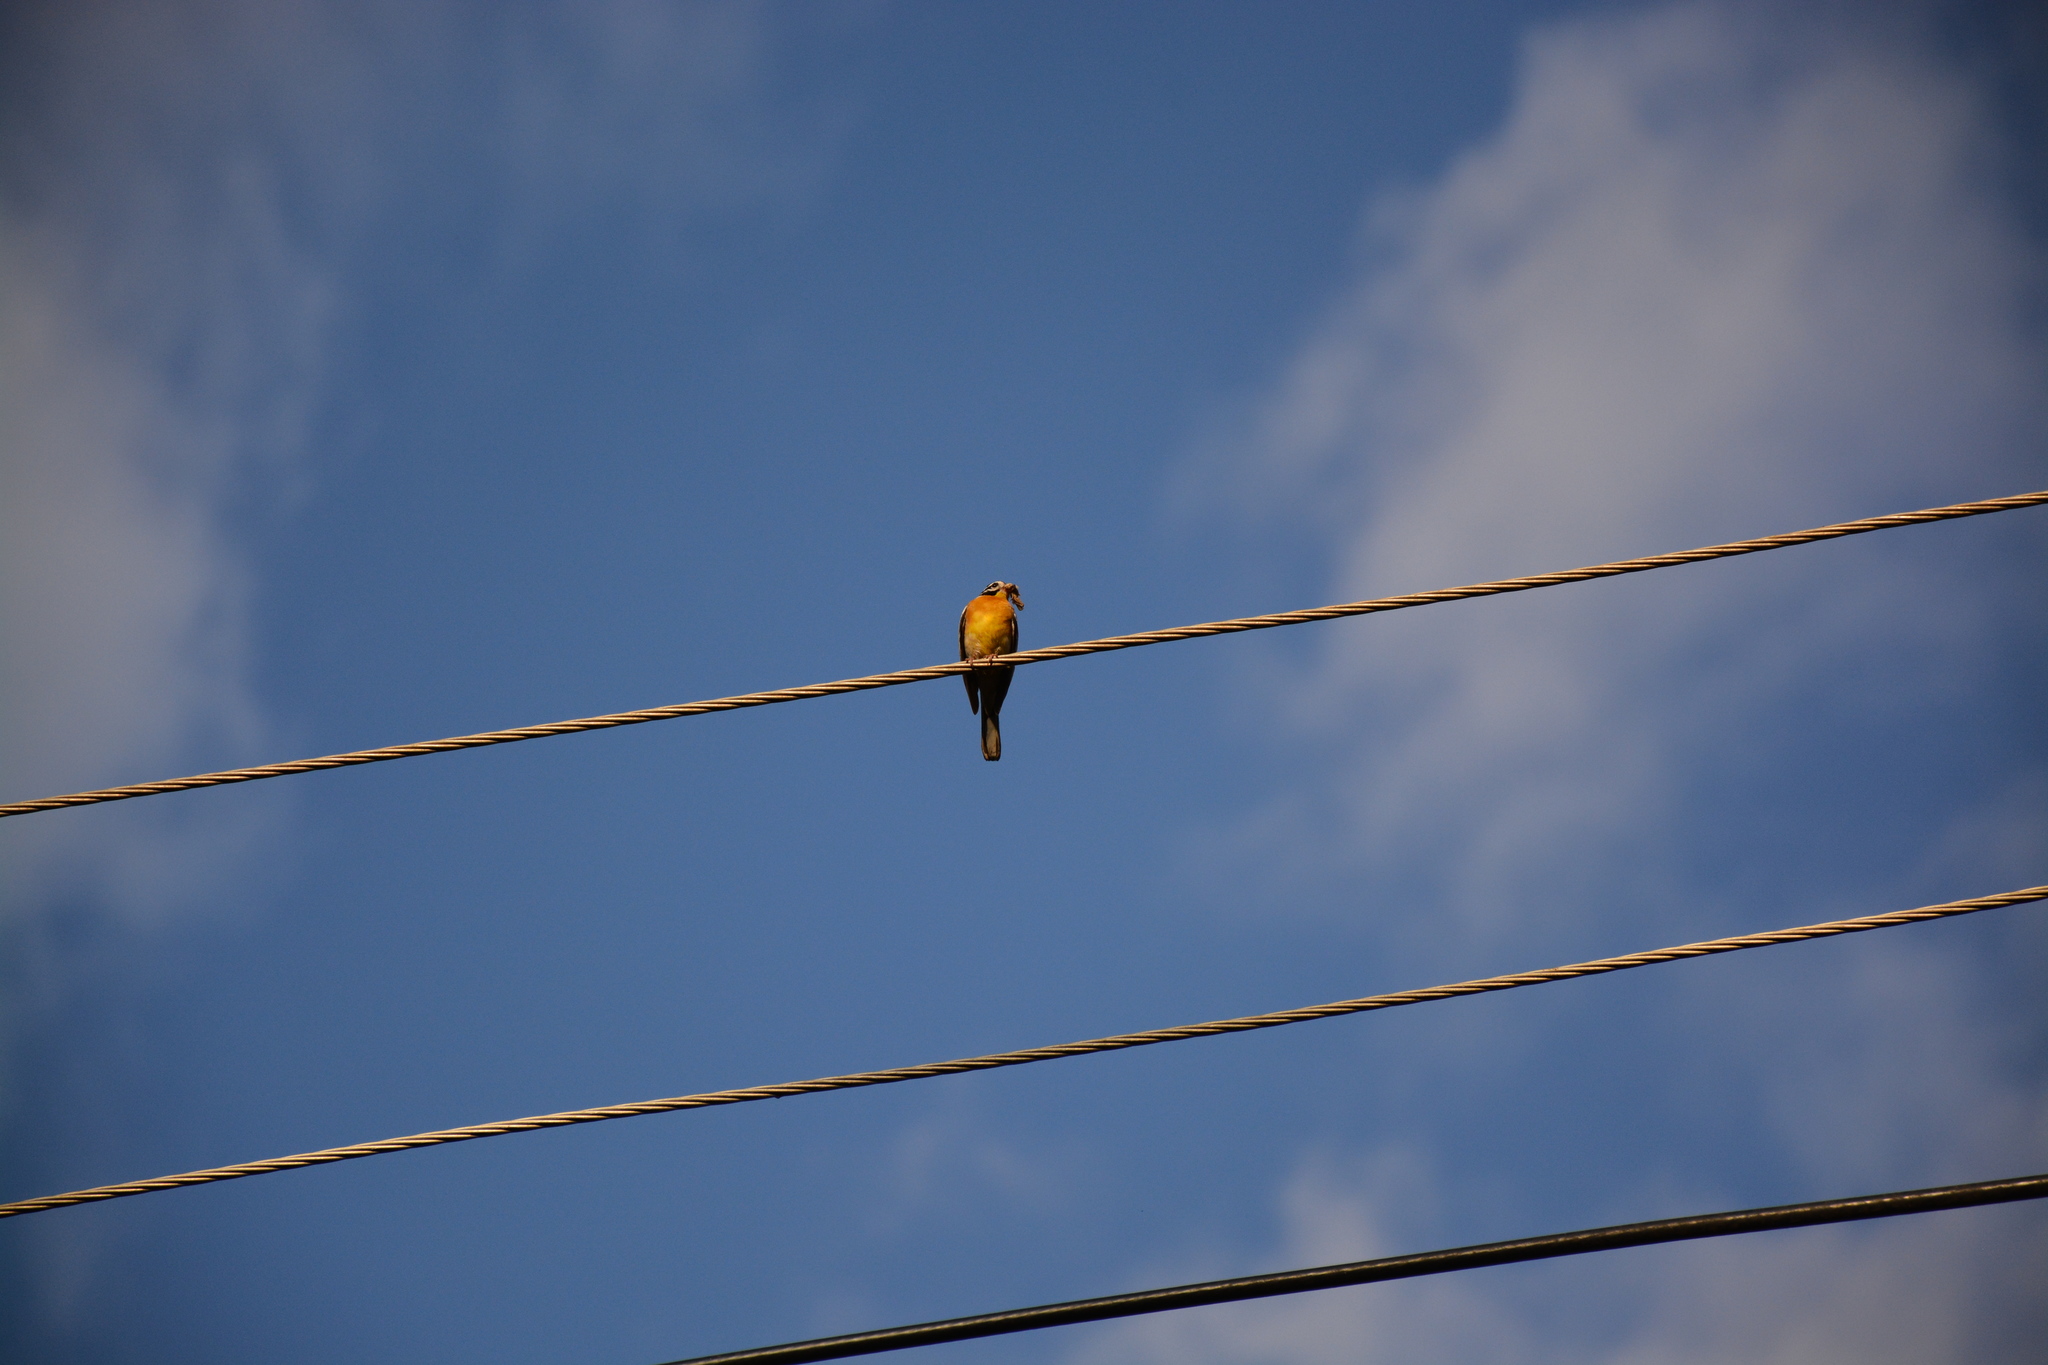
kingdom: Animalia
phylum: Chordata
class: Aves
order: Passeriformes
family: Emberizidae
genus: Emberiza
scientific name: Emberiza flaviventris
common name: Golden-breasted bunting
